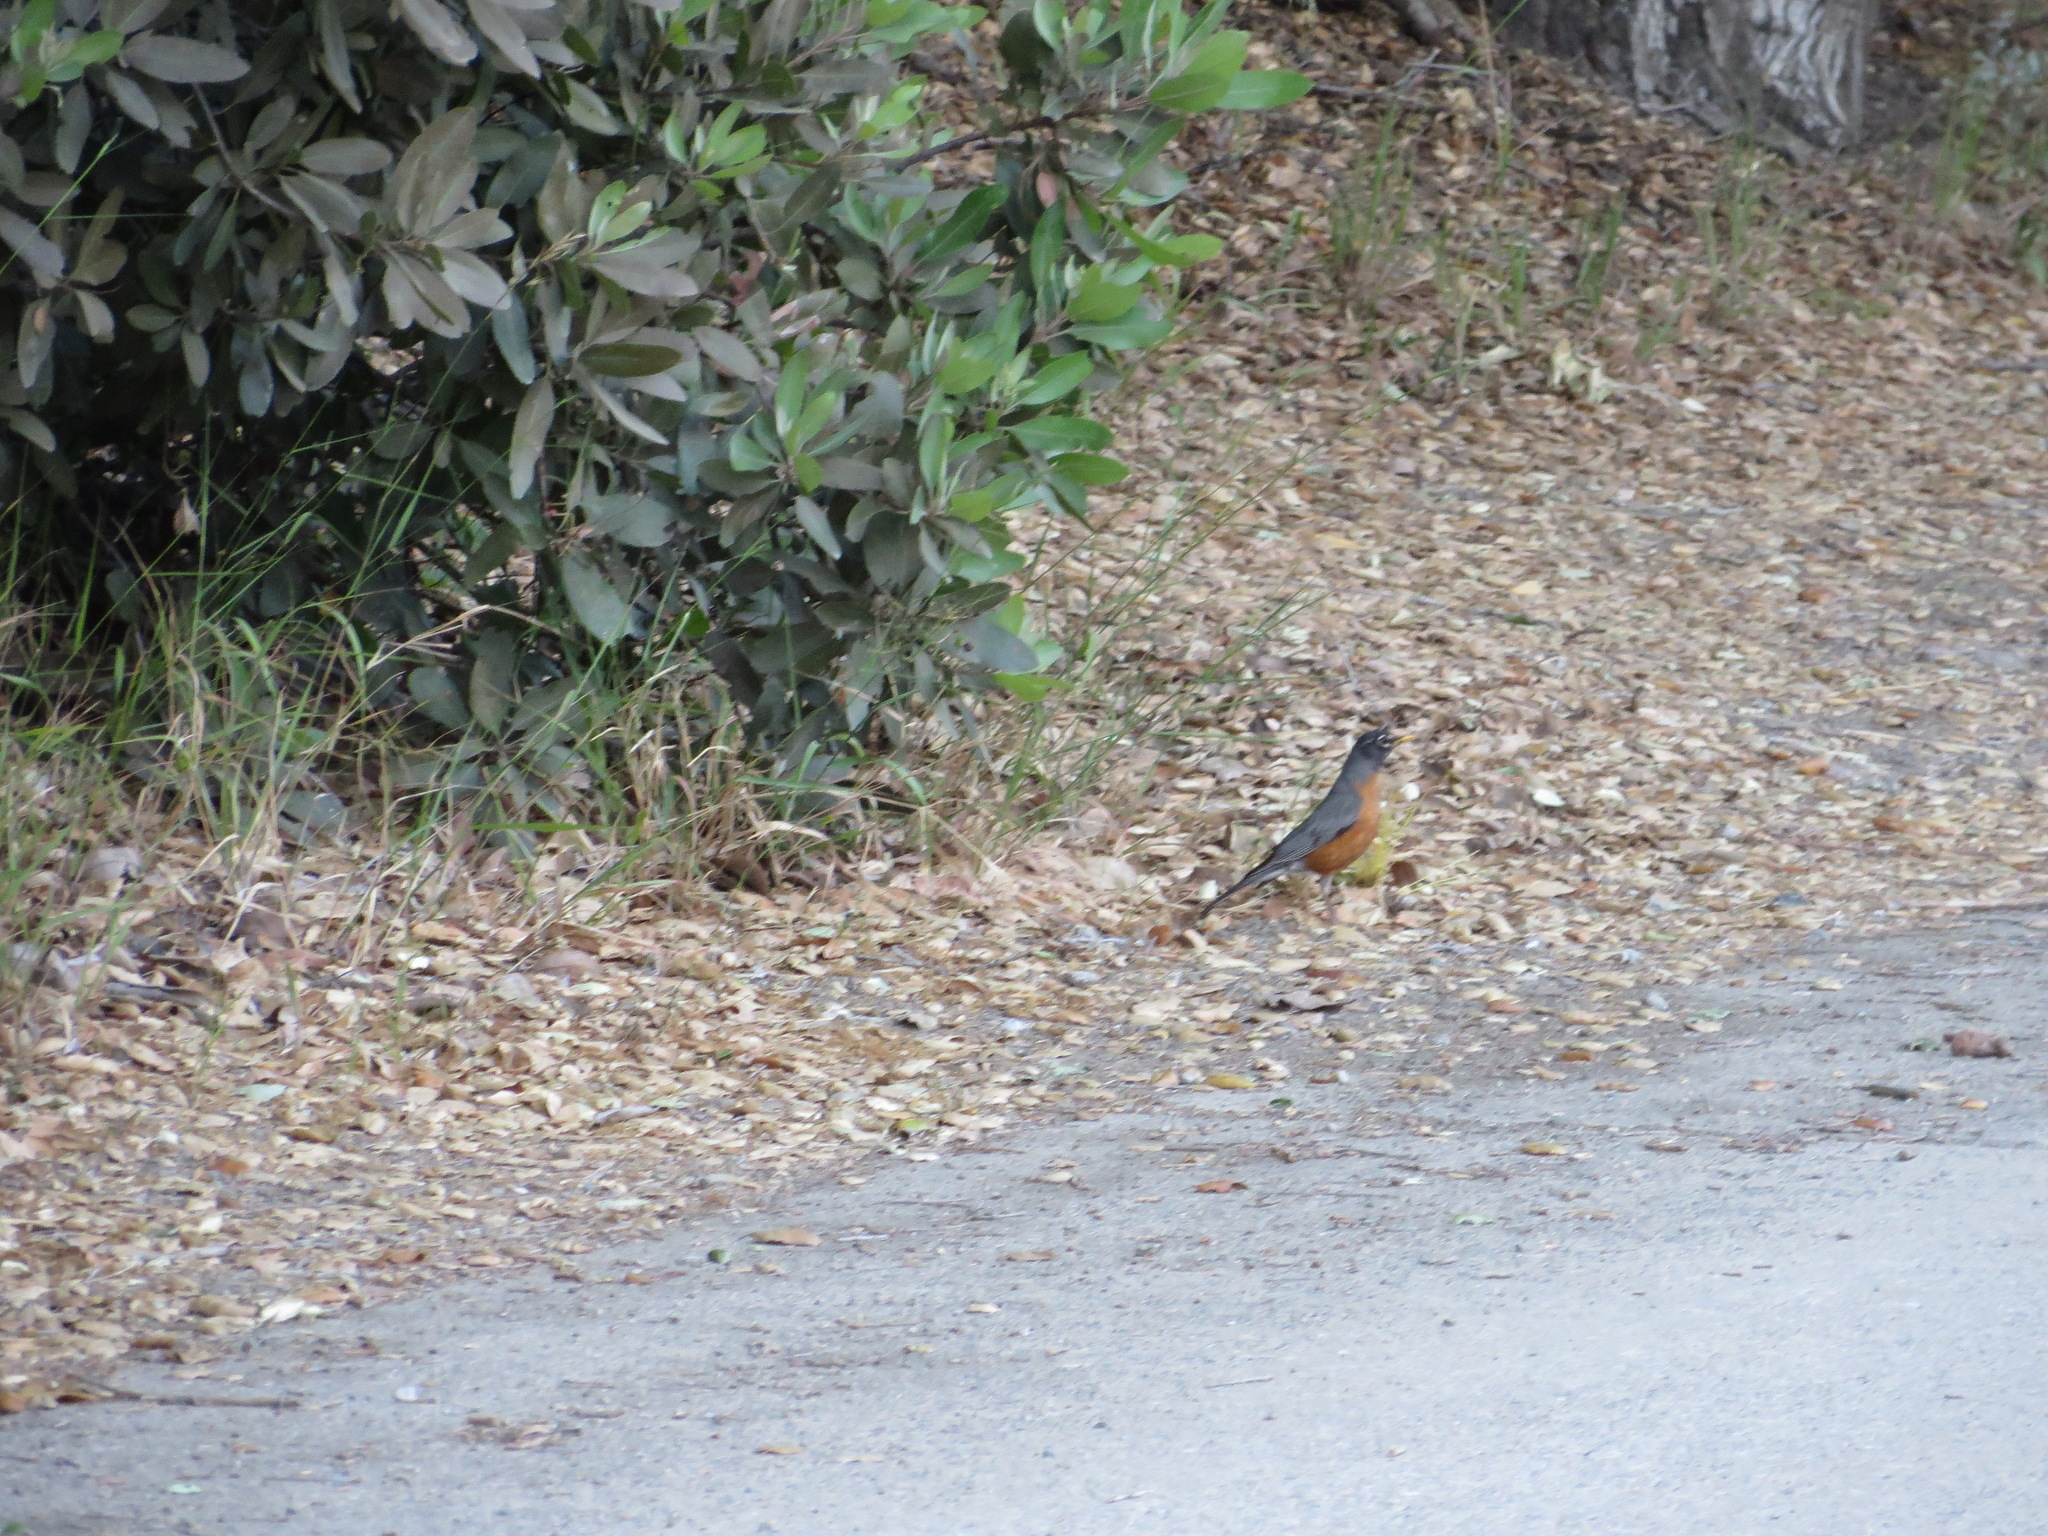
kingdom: Animalia
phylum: Chordata
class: Aves
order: Passeriformes
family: Turdidae
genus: Turdus
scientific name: Turdus migratorius
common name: American robin
